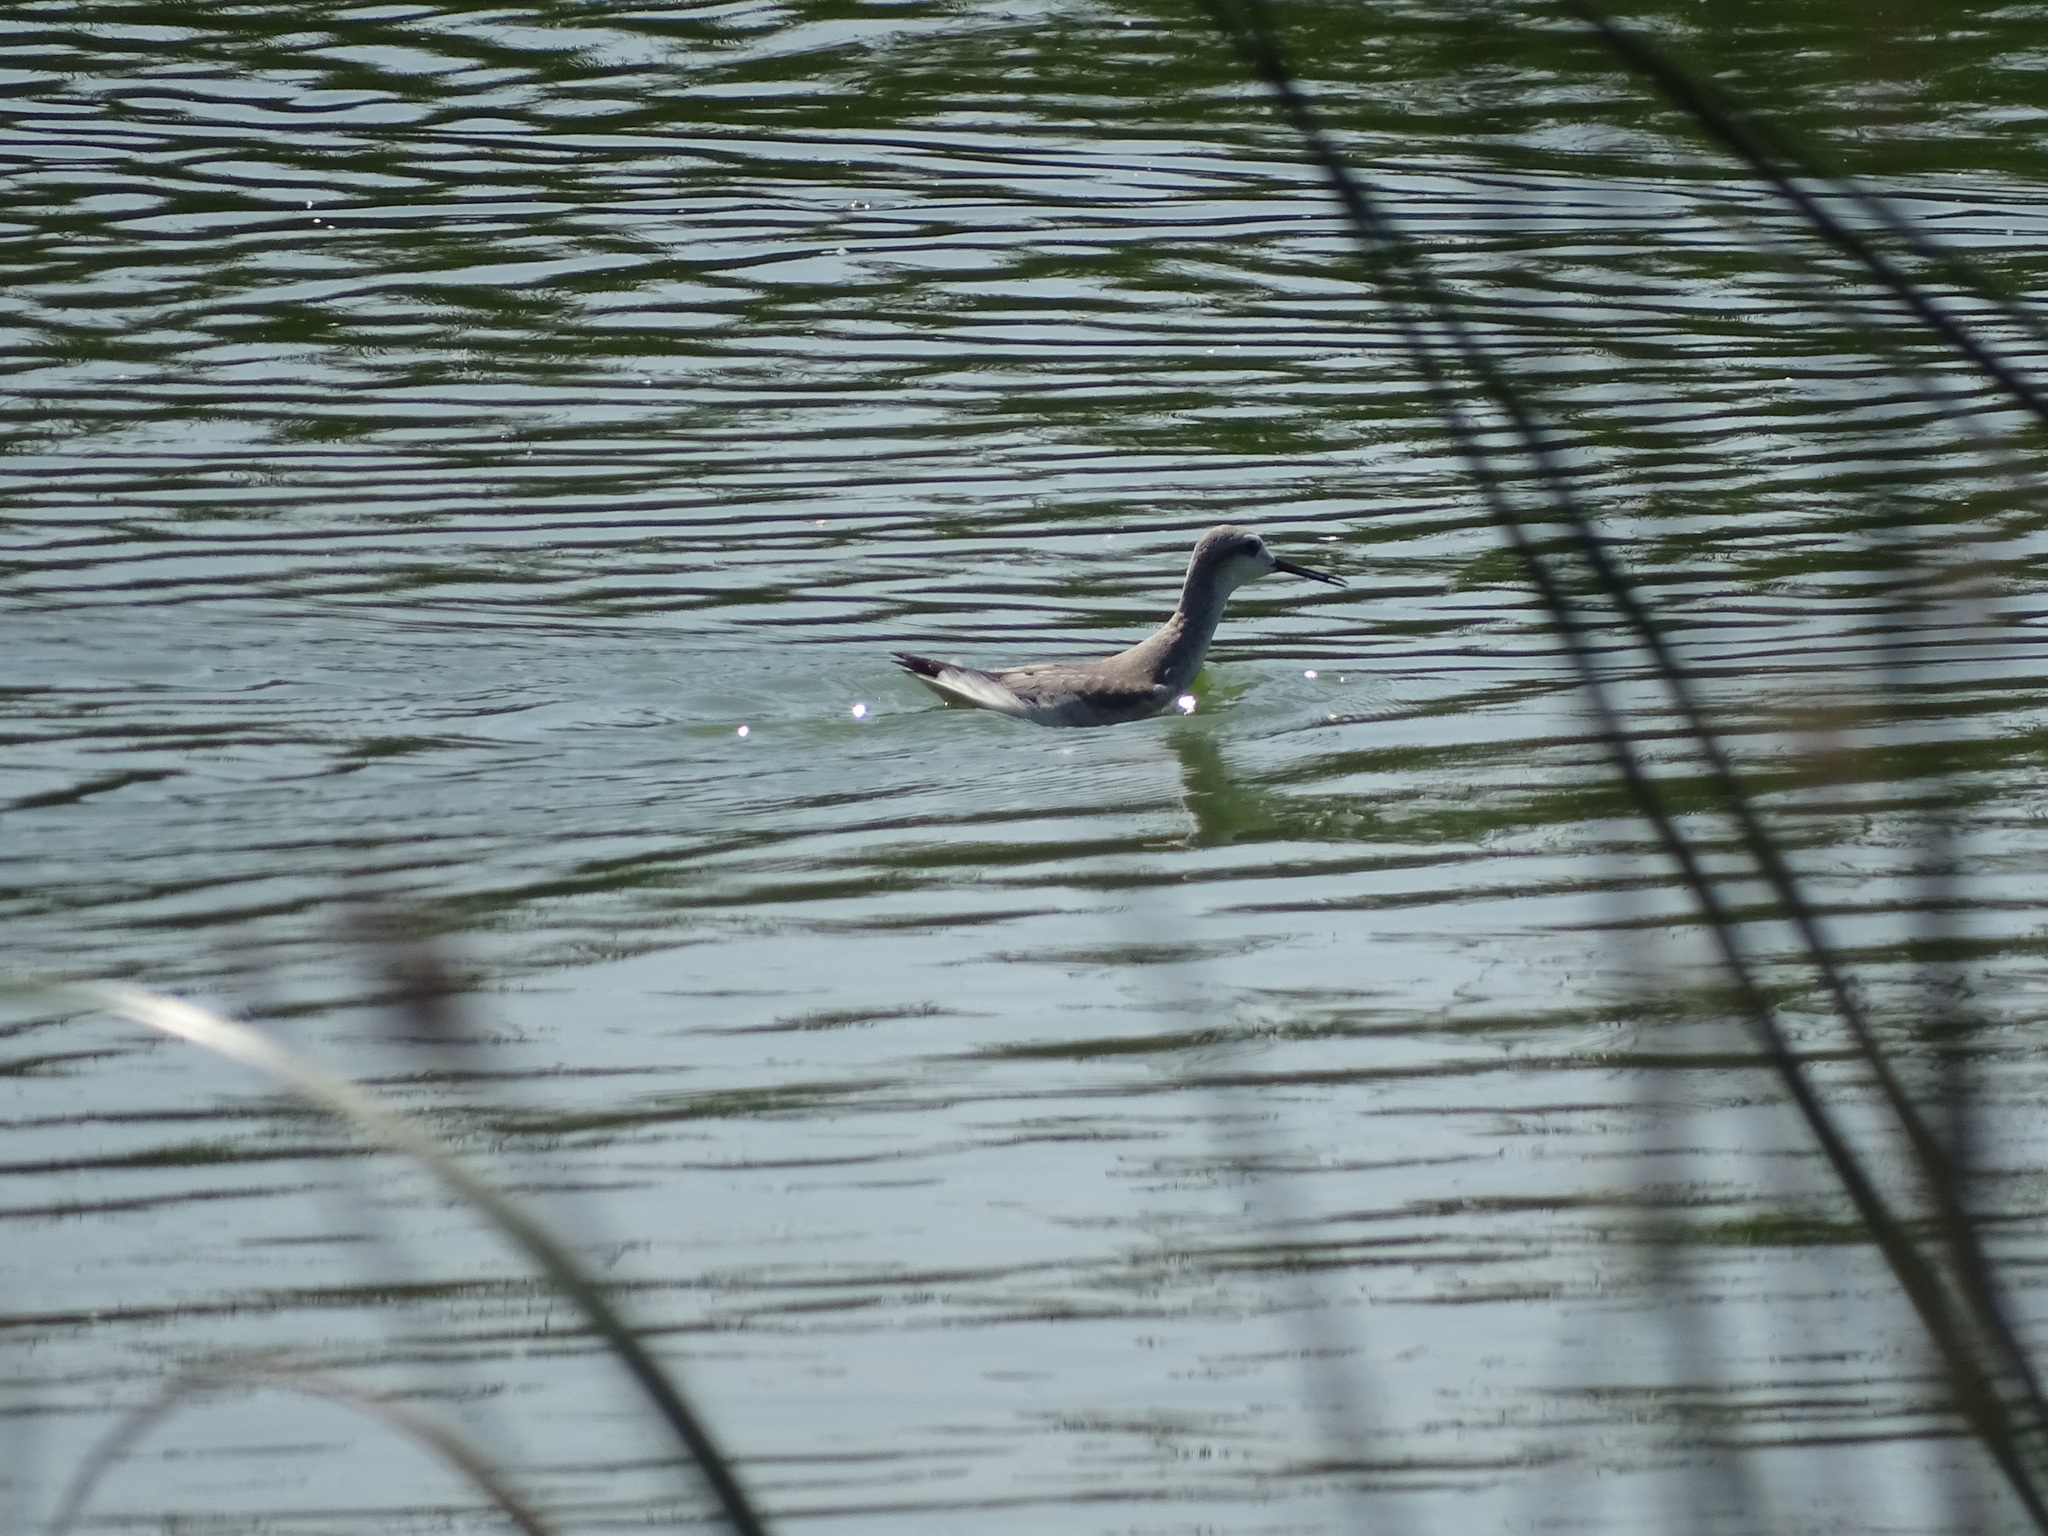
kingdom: Animalia
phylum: Chordata
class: Aves
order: Charadriiformes
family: Scolopacidae
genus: Phalaropus
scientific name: Phalaropus tricolor
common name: Wilson's phalarope
